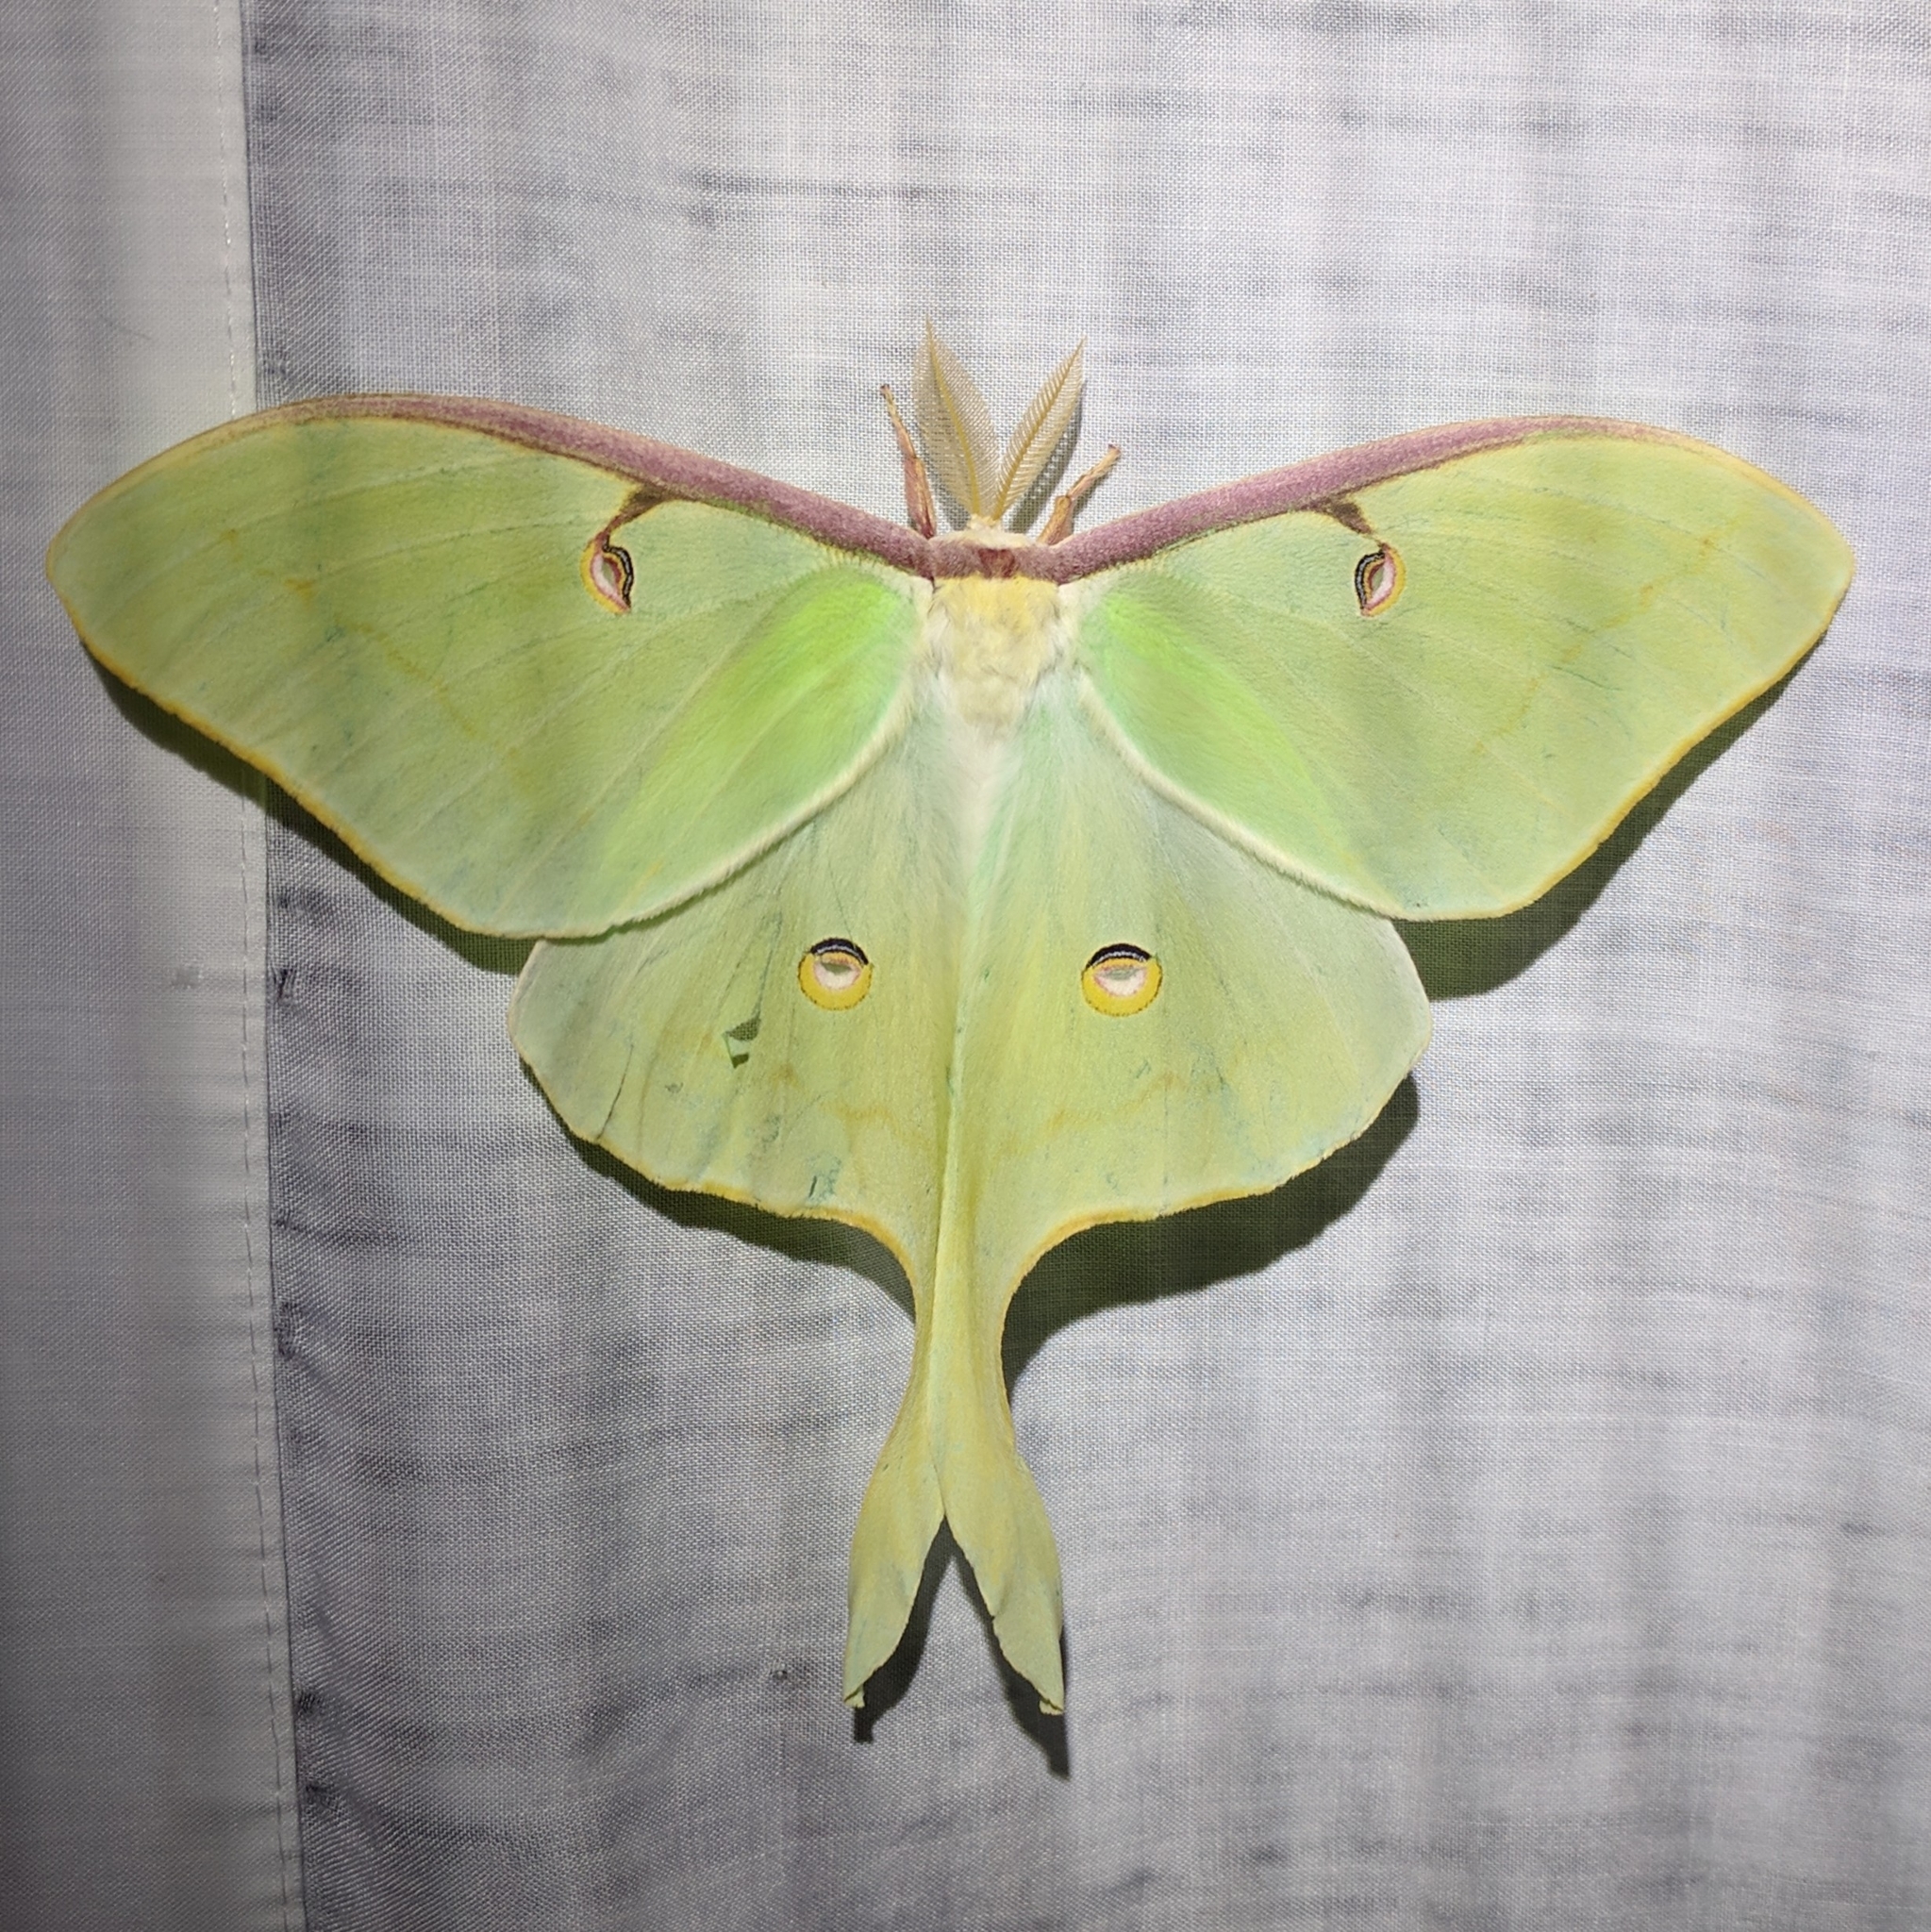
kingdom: Animalia
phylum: Arthropoda
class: Insecta
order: Lepidoptera
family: Saturniidae
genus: Actias
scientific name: Actias luna
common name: Luna moth
